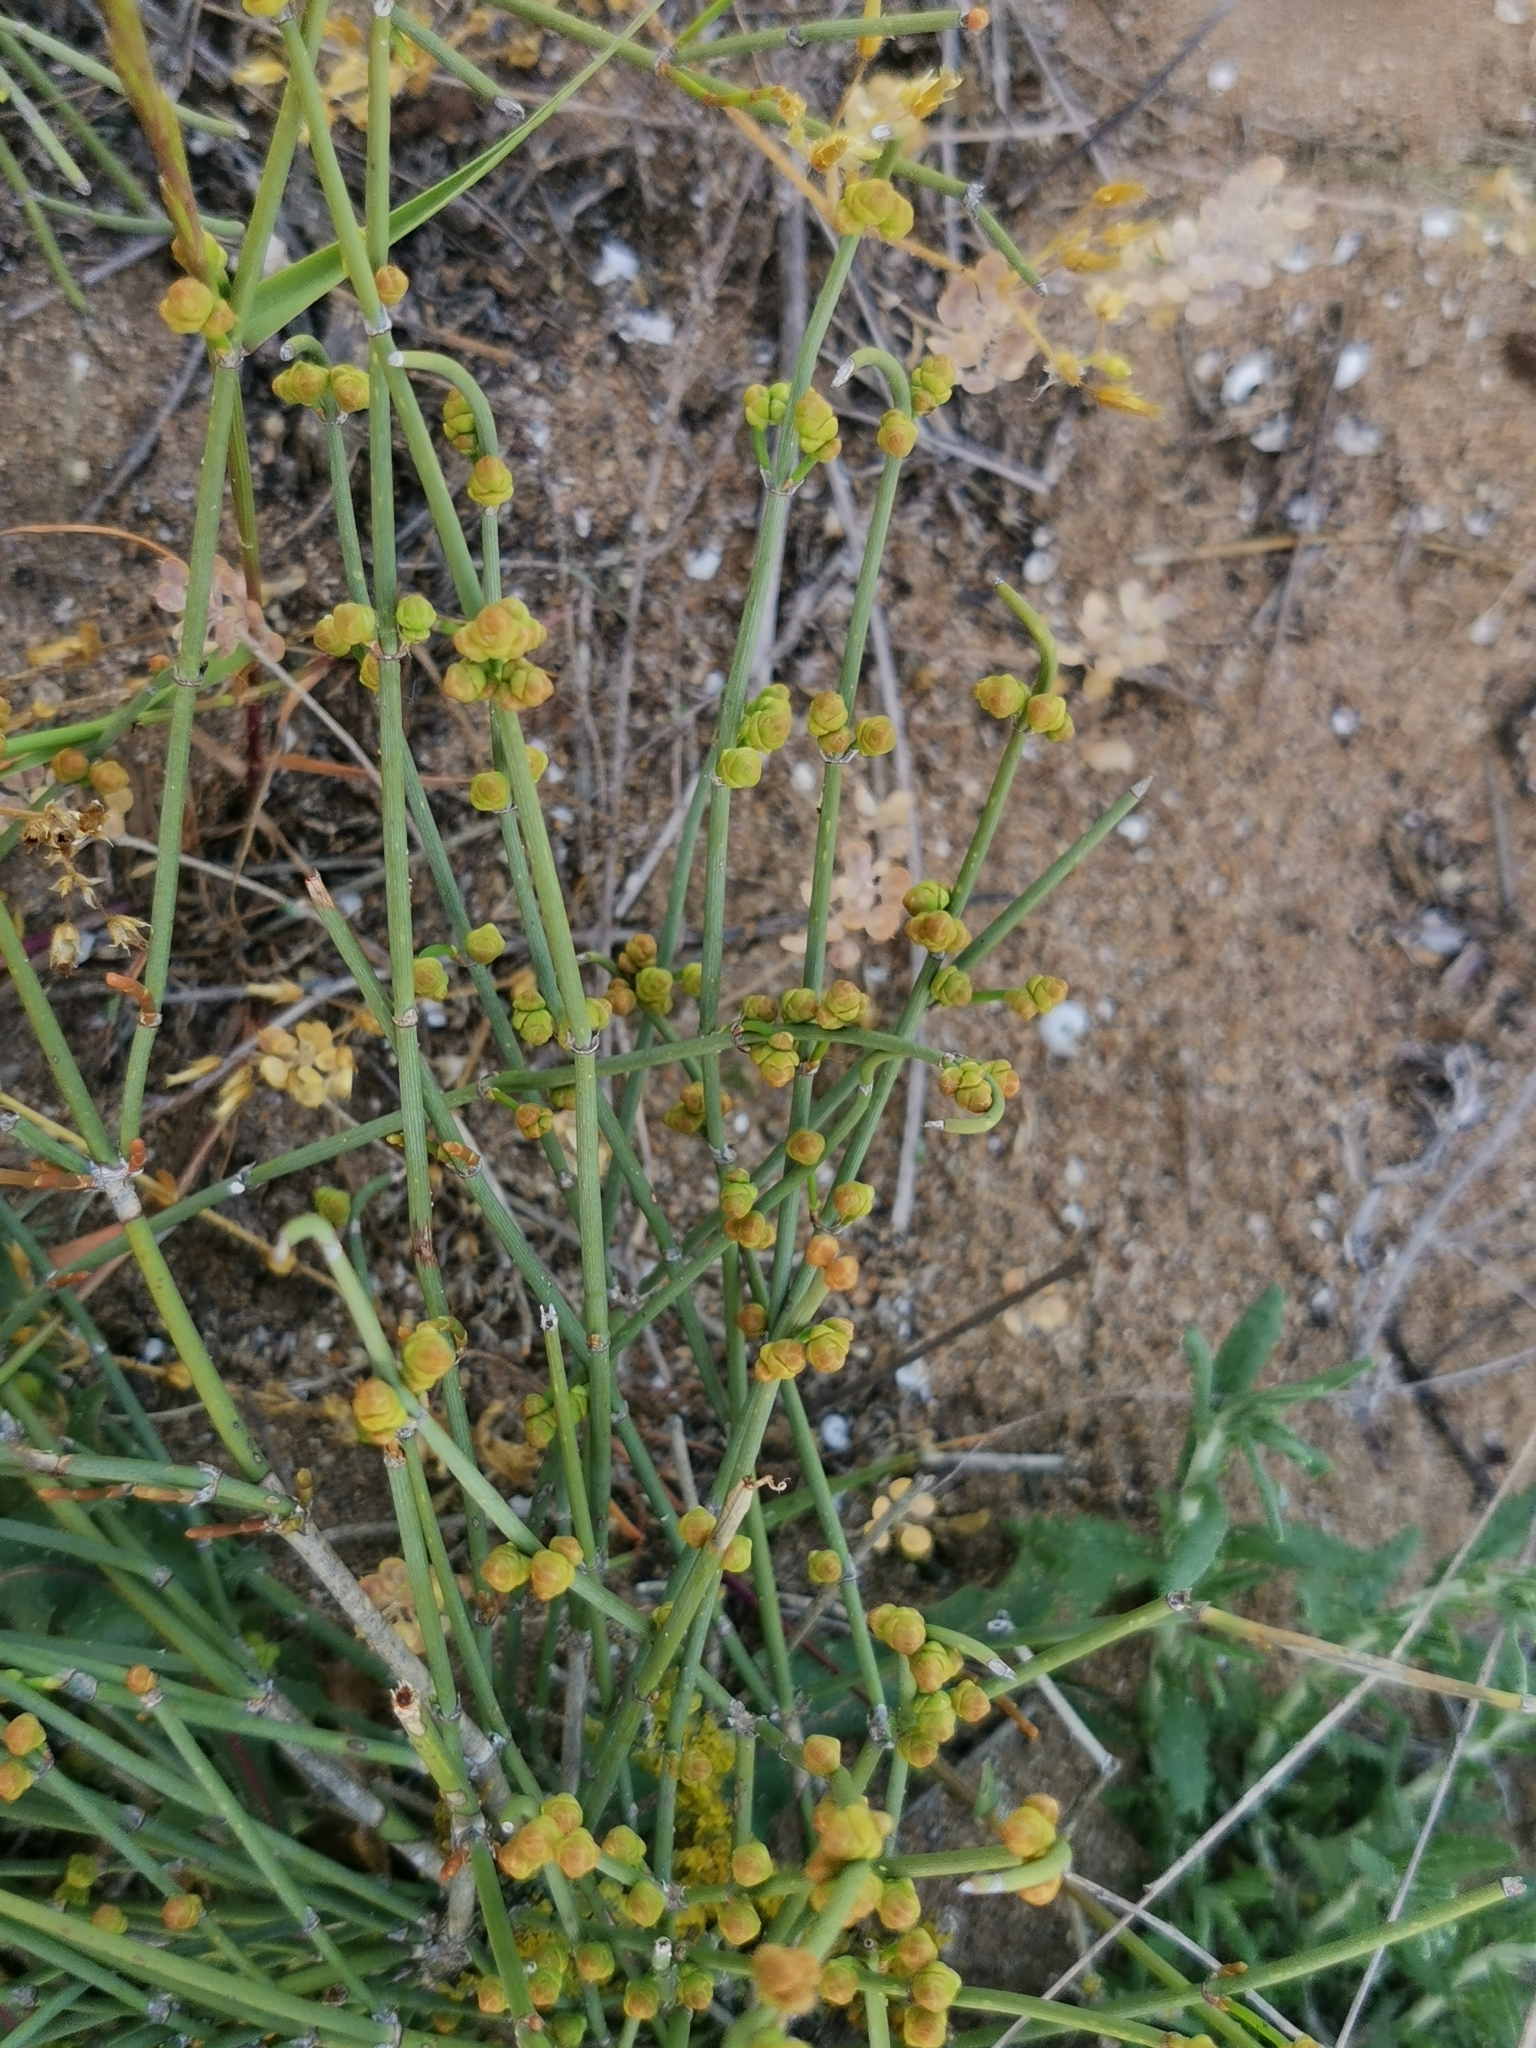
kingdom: Plantae
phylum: Tracheophyta
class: Gnetopsida
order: Ephedrales
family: Ephedraceae
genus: Ephedra
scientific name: Ephedra distachya
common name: Sea grape
